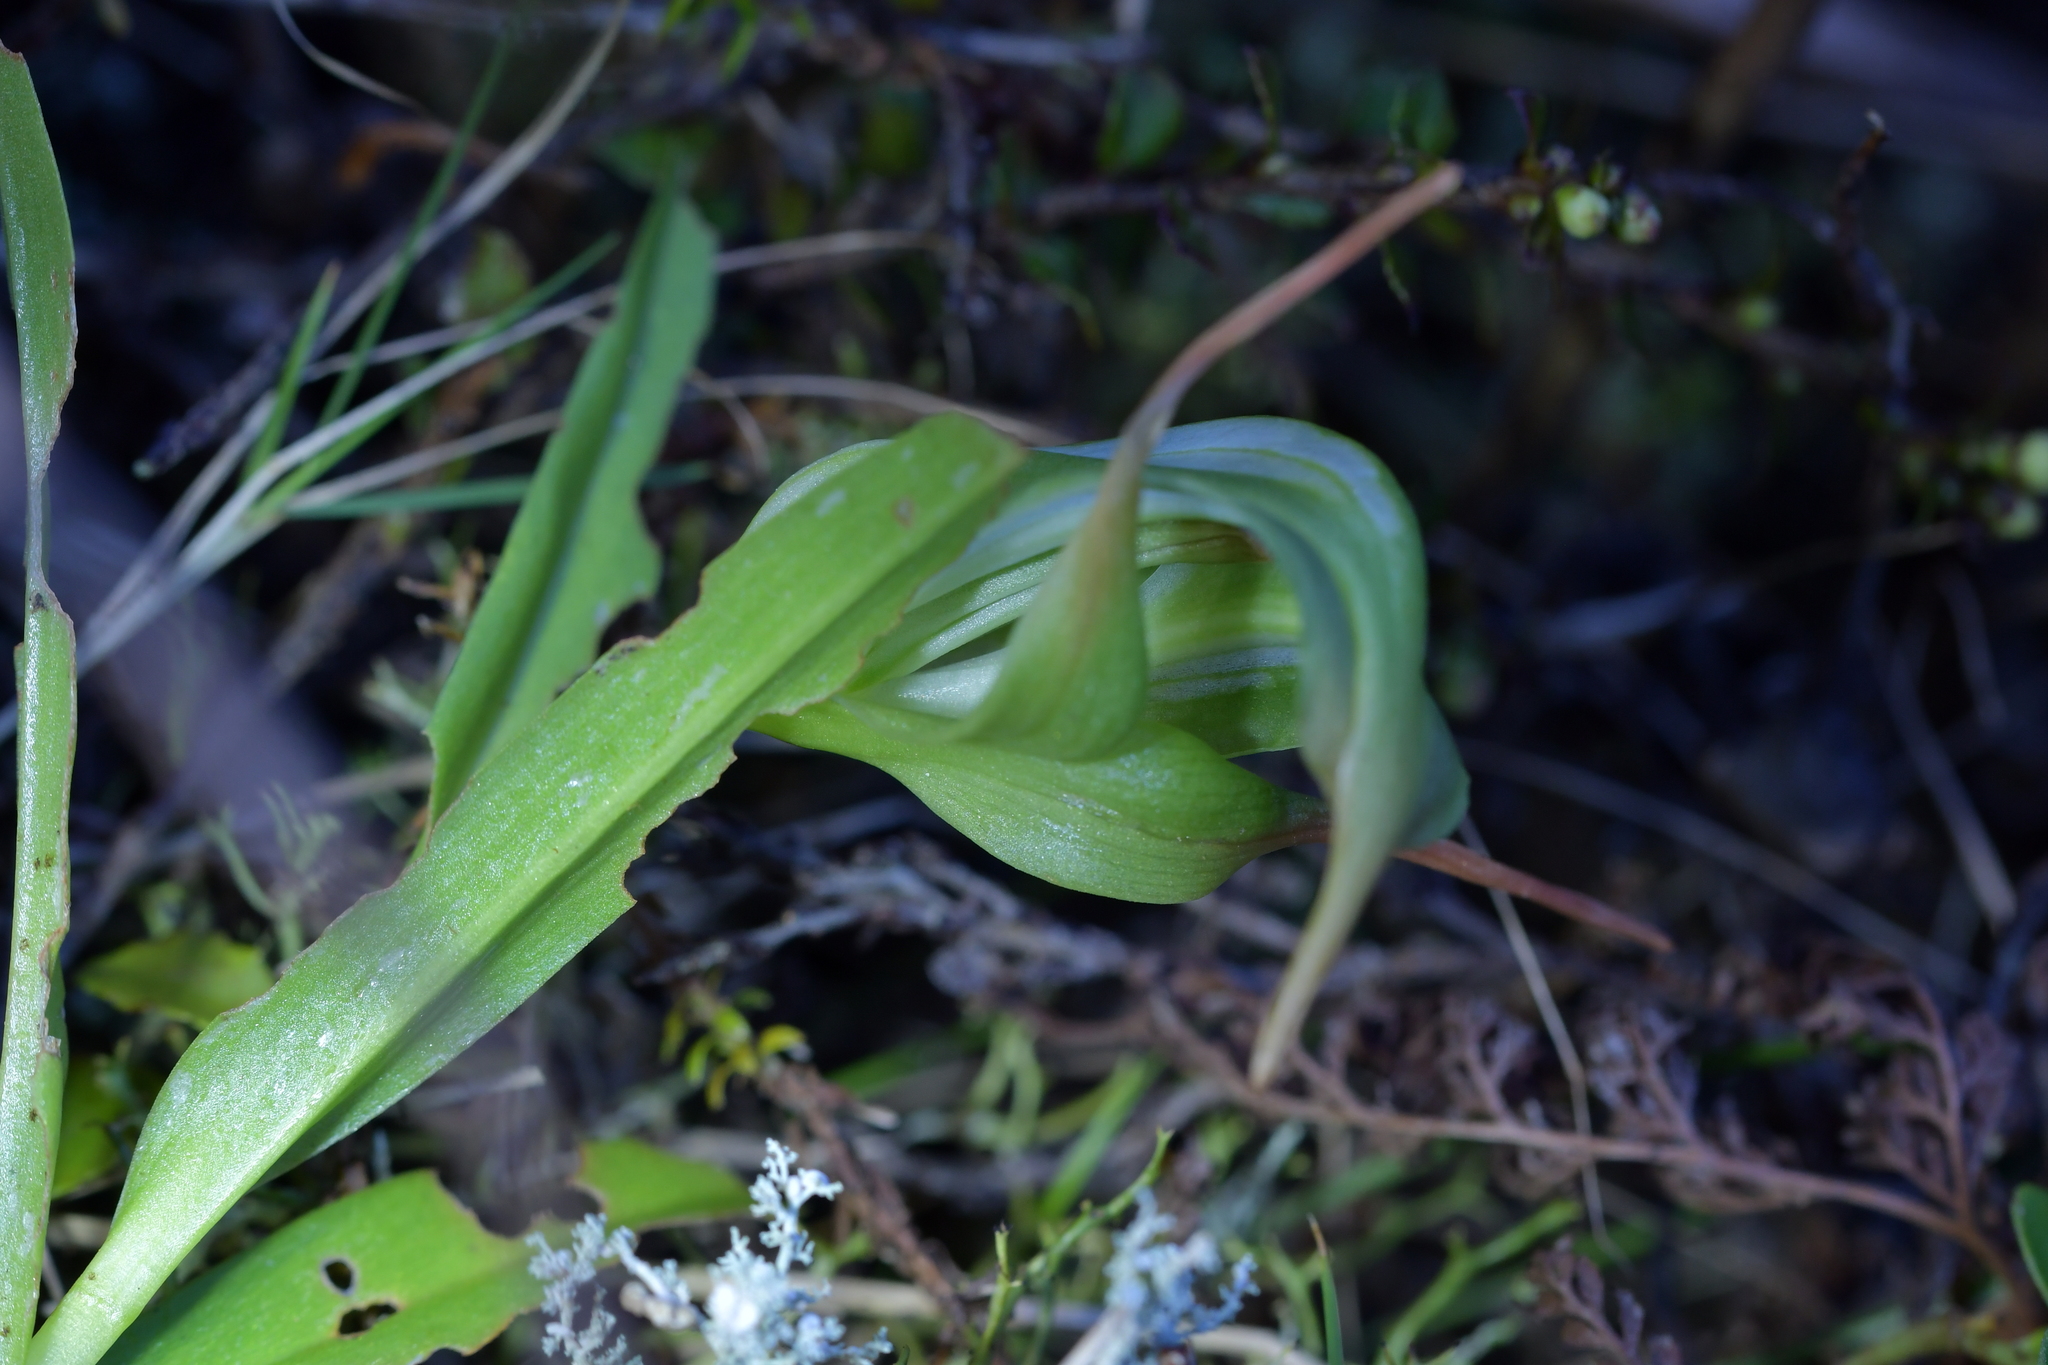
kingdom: Plantae
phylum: Tracheophyta
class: Liliopsida
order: Asparagales
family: Orchidaceae
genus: Pterostylis
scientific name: Pterostylis banksii
